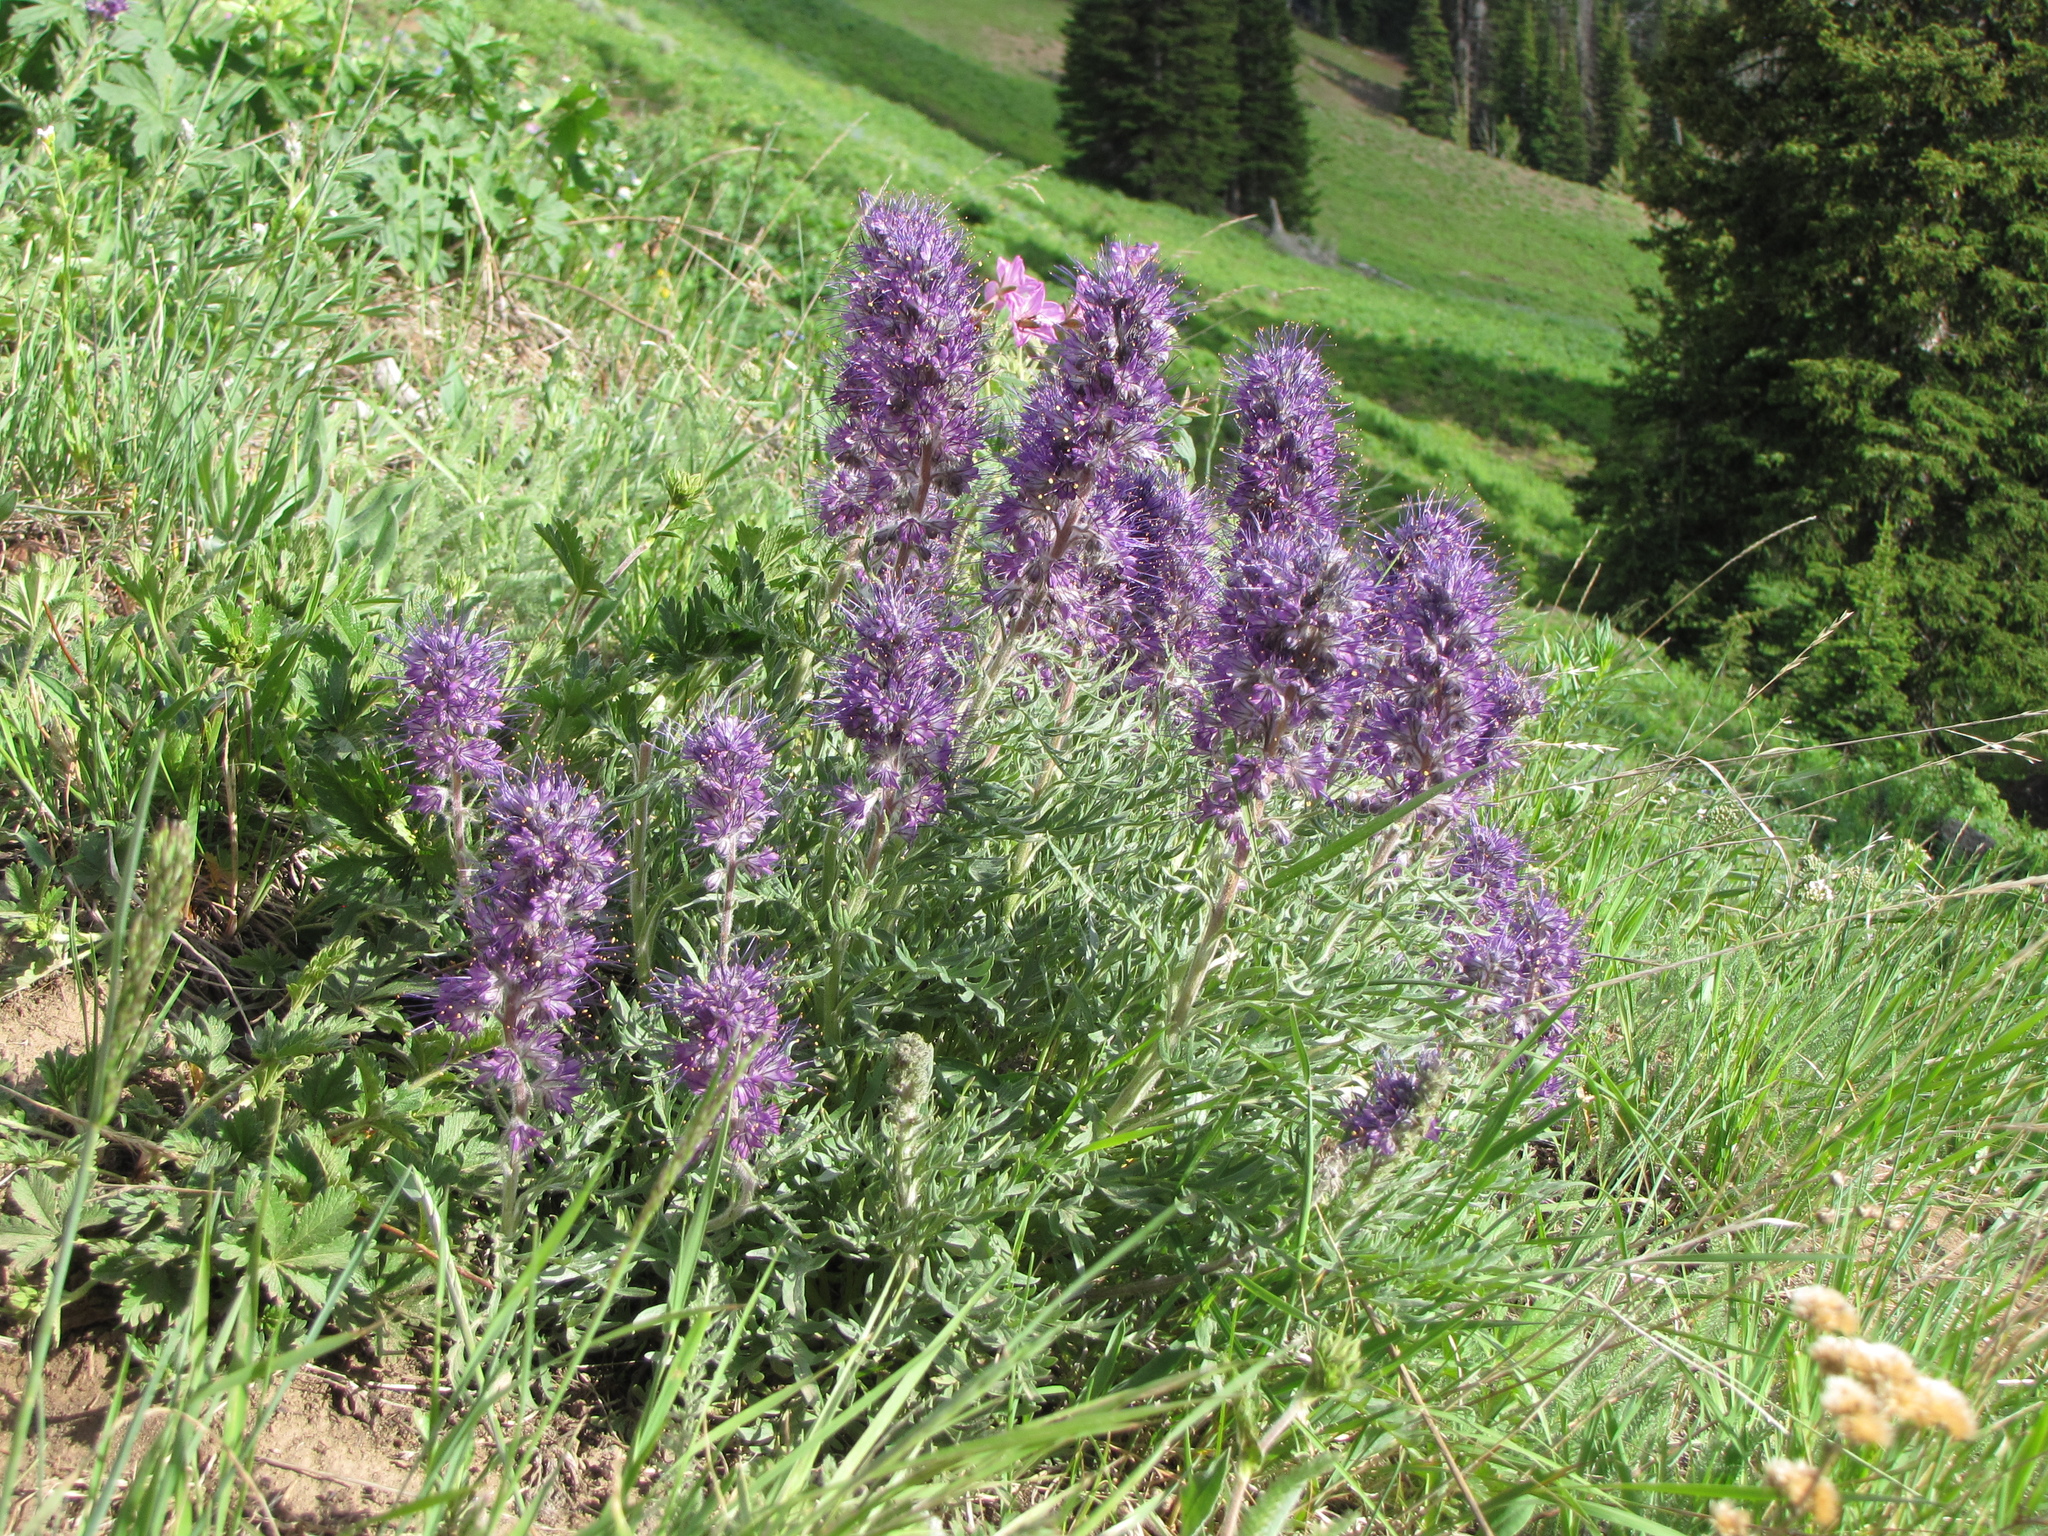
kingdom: Plantae
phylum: Tracheophyta
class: Magnoliopsida
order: Boraginales
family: Hydrophyllaceae
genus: Phacelia
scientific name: Phacelia sericea
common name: Silky phacelia
